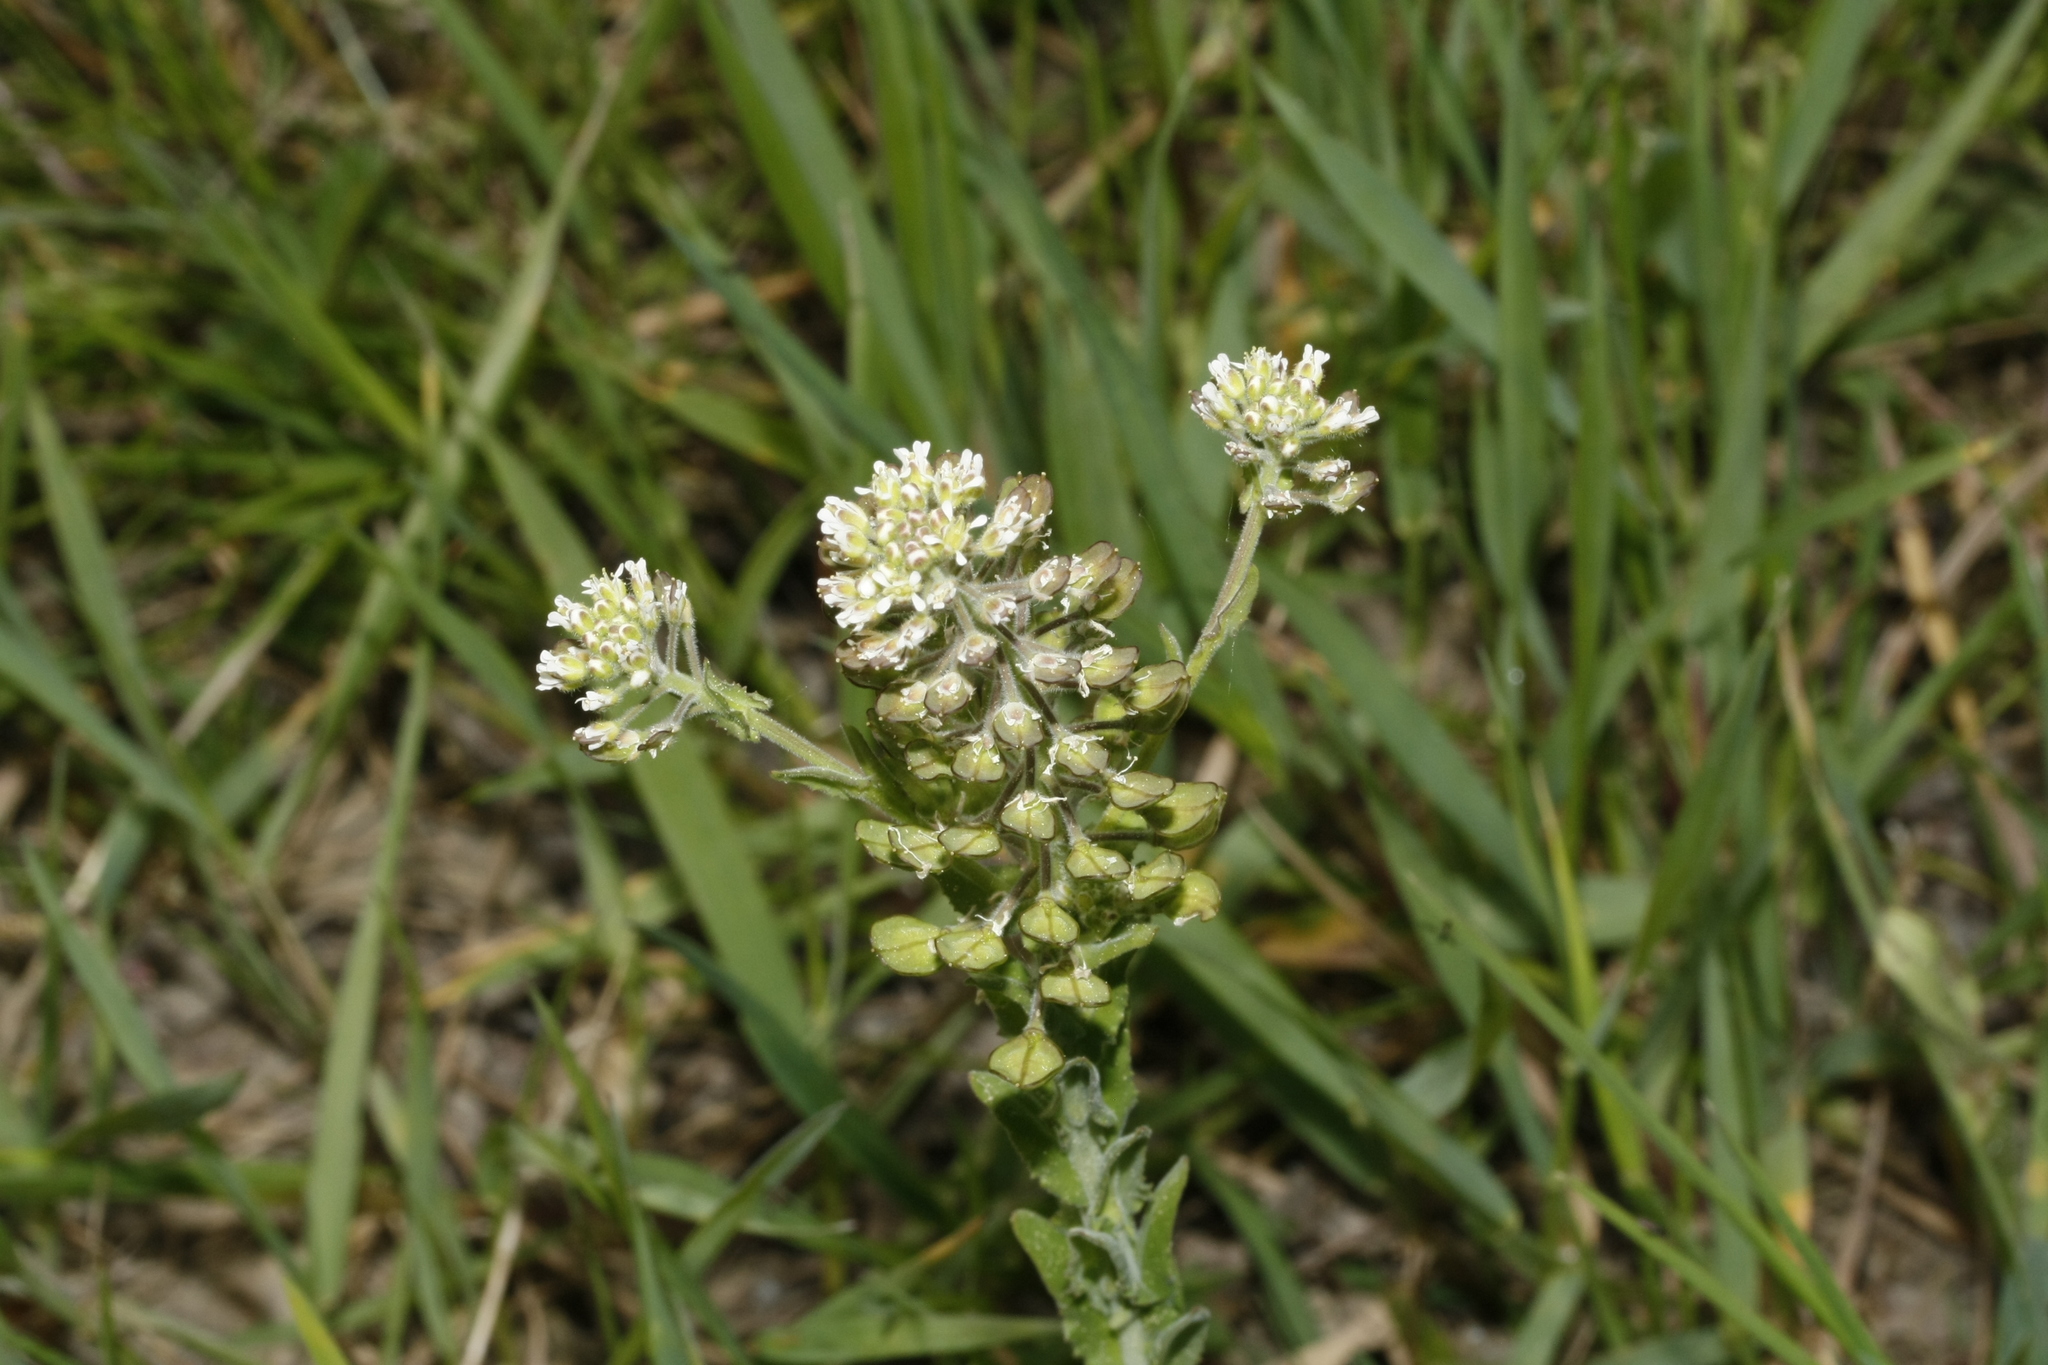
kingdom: Plantae
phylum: Tracheophyta
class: Magnoliopsida
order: Brassicales
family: Brassicaceae
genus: Lepidium
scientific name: Lepidium campestre
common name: Field pepperwort
